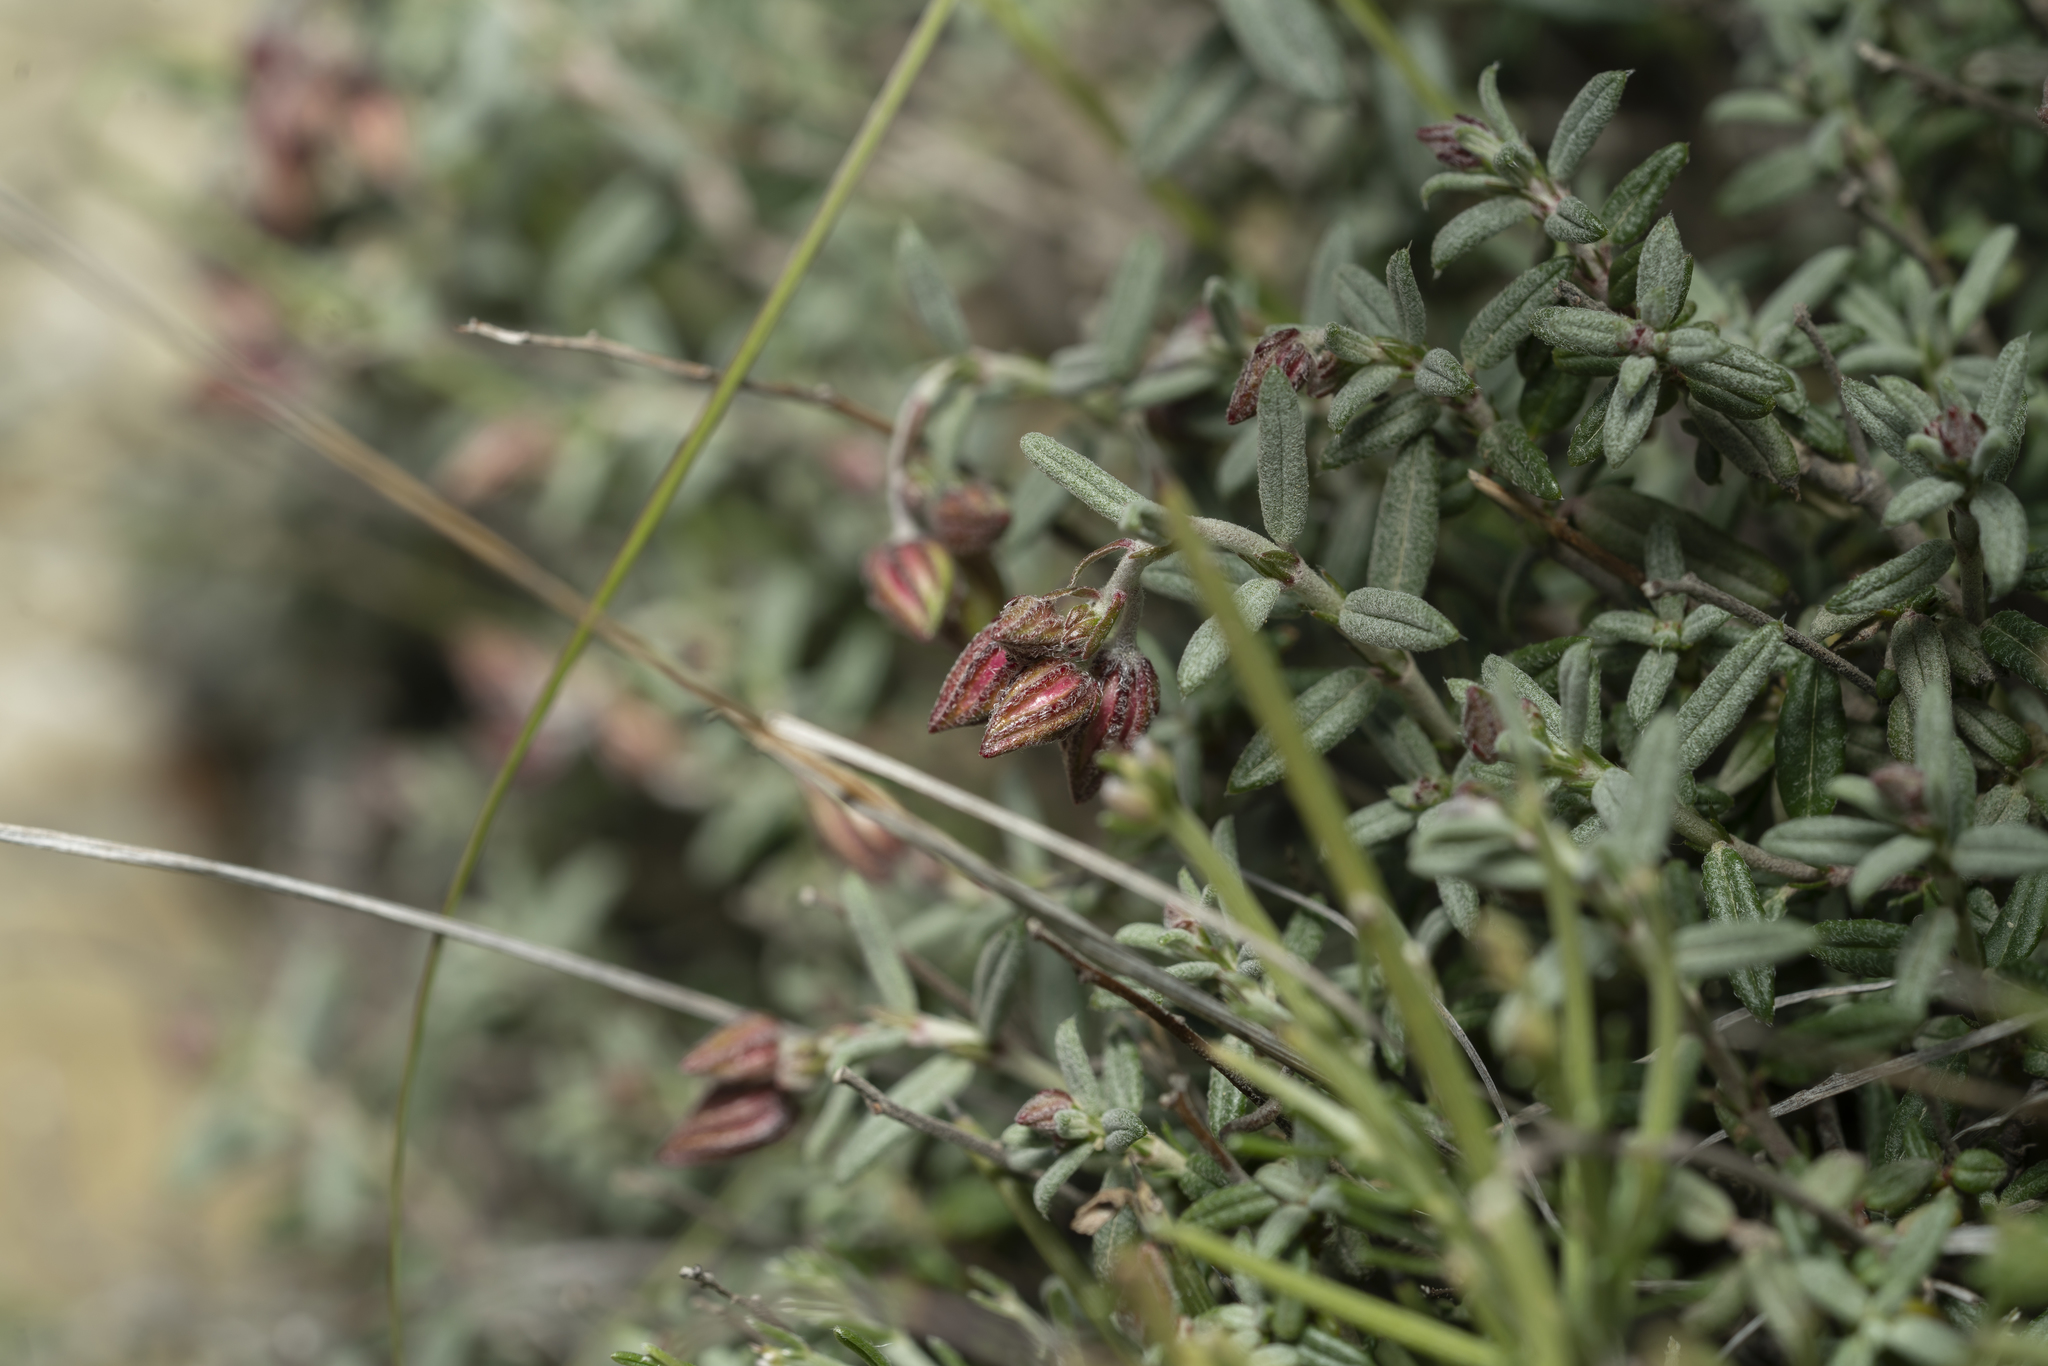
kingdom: Plantae
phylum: Tracheophyta
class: Magnoliopsida
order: Malvales
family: Cistaceae
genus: Helianthemum
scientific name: Helianthemum apenninum
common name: White rock-rose
